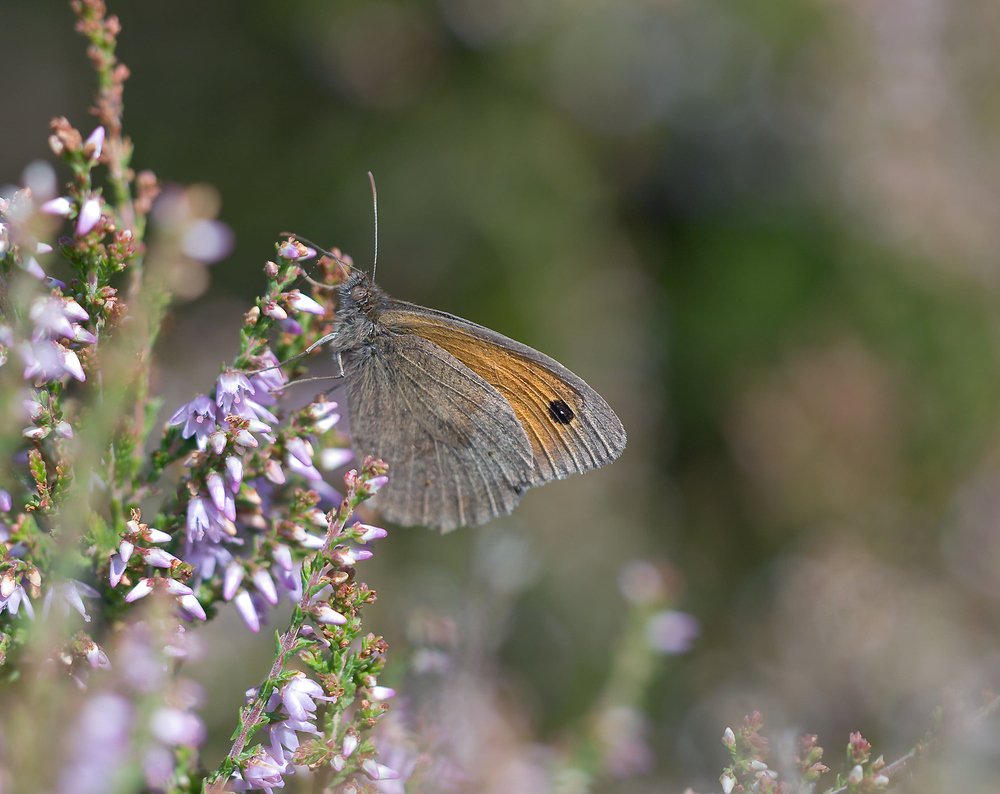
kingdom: Animalia
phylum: Arthropoda
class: Insecta
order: Lepidoptera
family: Nymphalidae
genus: Maniola
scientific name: Maniola jurtina
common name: Meadow brown
